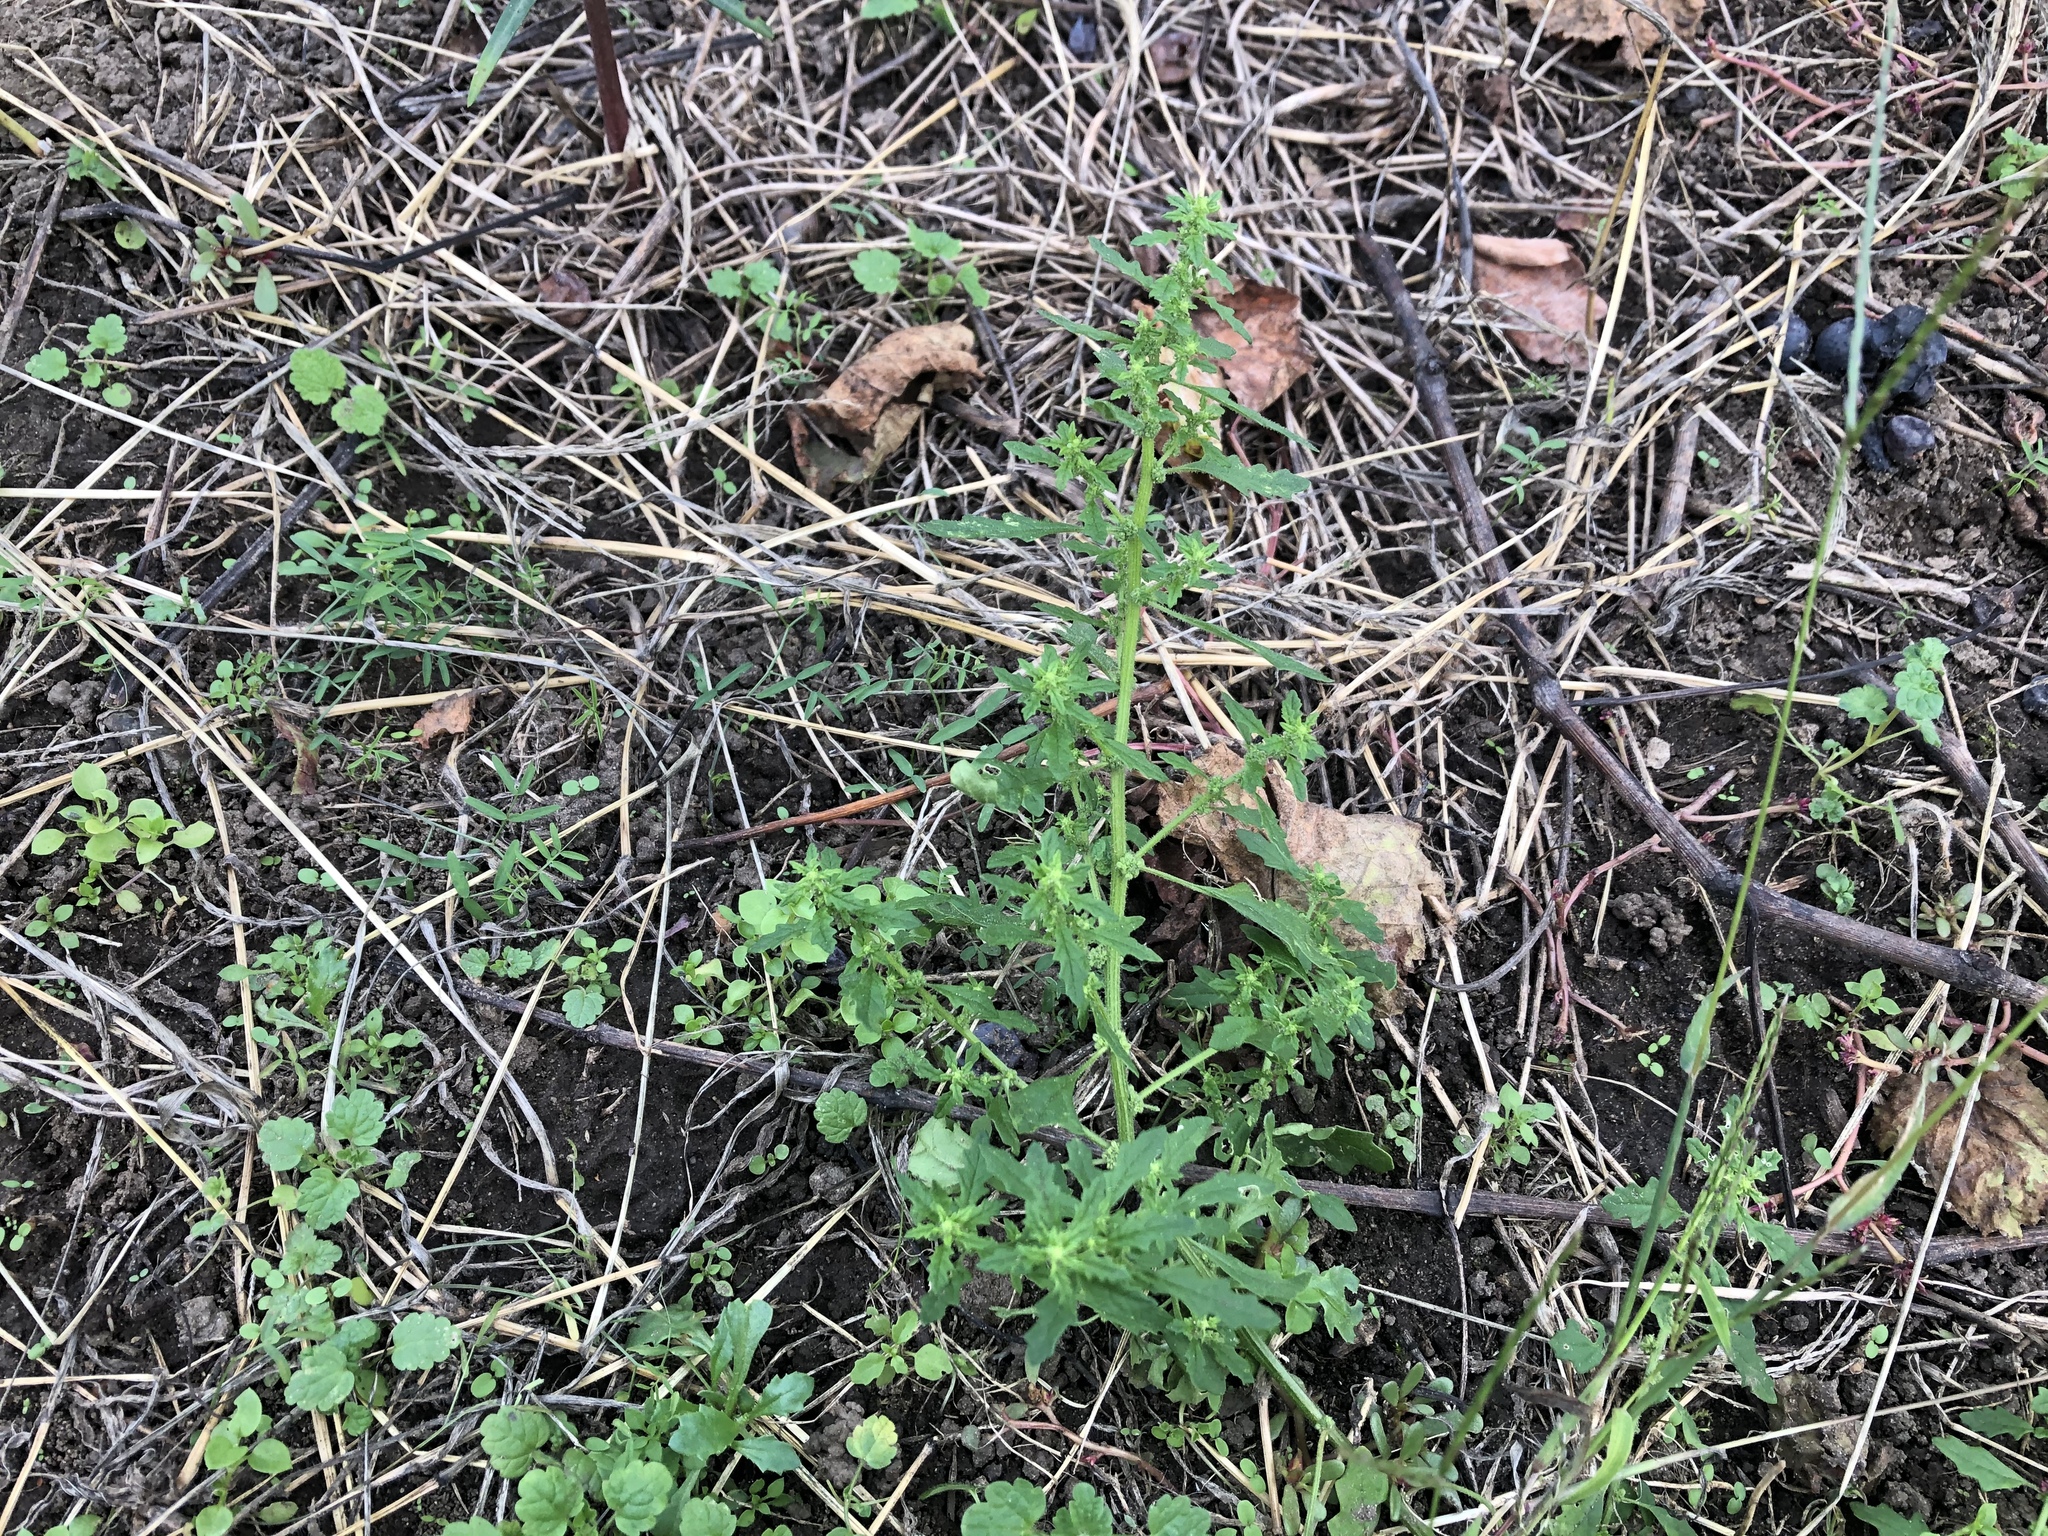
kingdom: Plantae
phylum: Tracheophyta
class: Magnoliopsida
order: Caryophyllales
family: Amaranthaceae
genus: Dysphania
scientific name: Dysphania pumilio
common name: Clammy goosefoot
